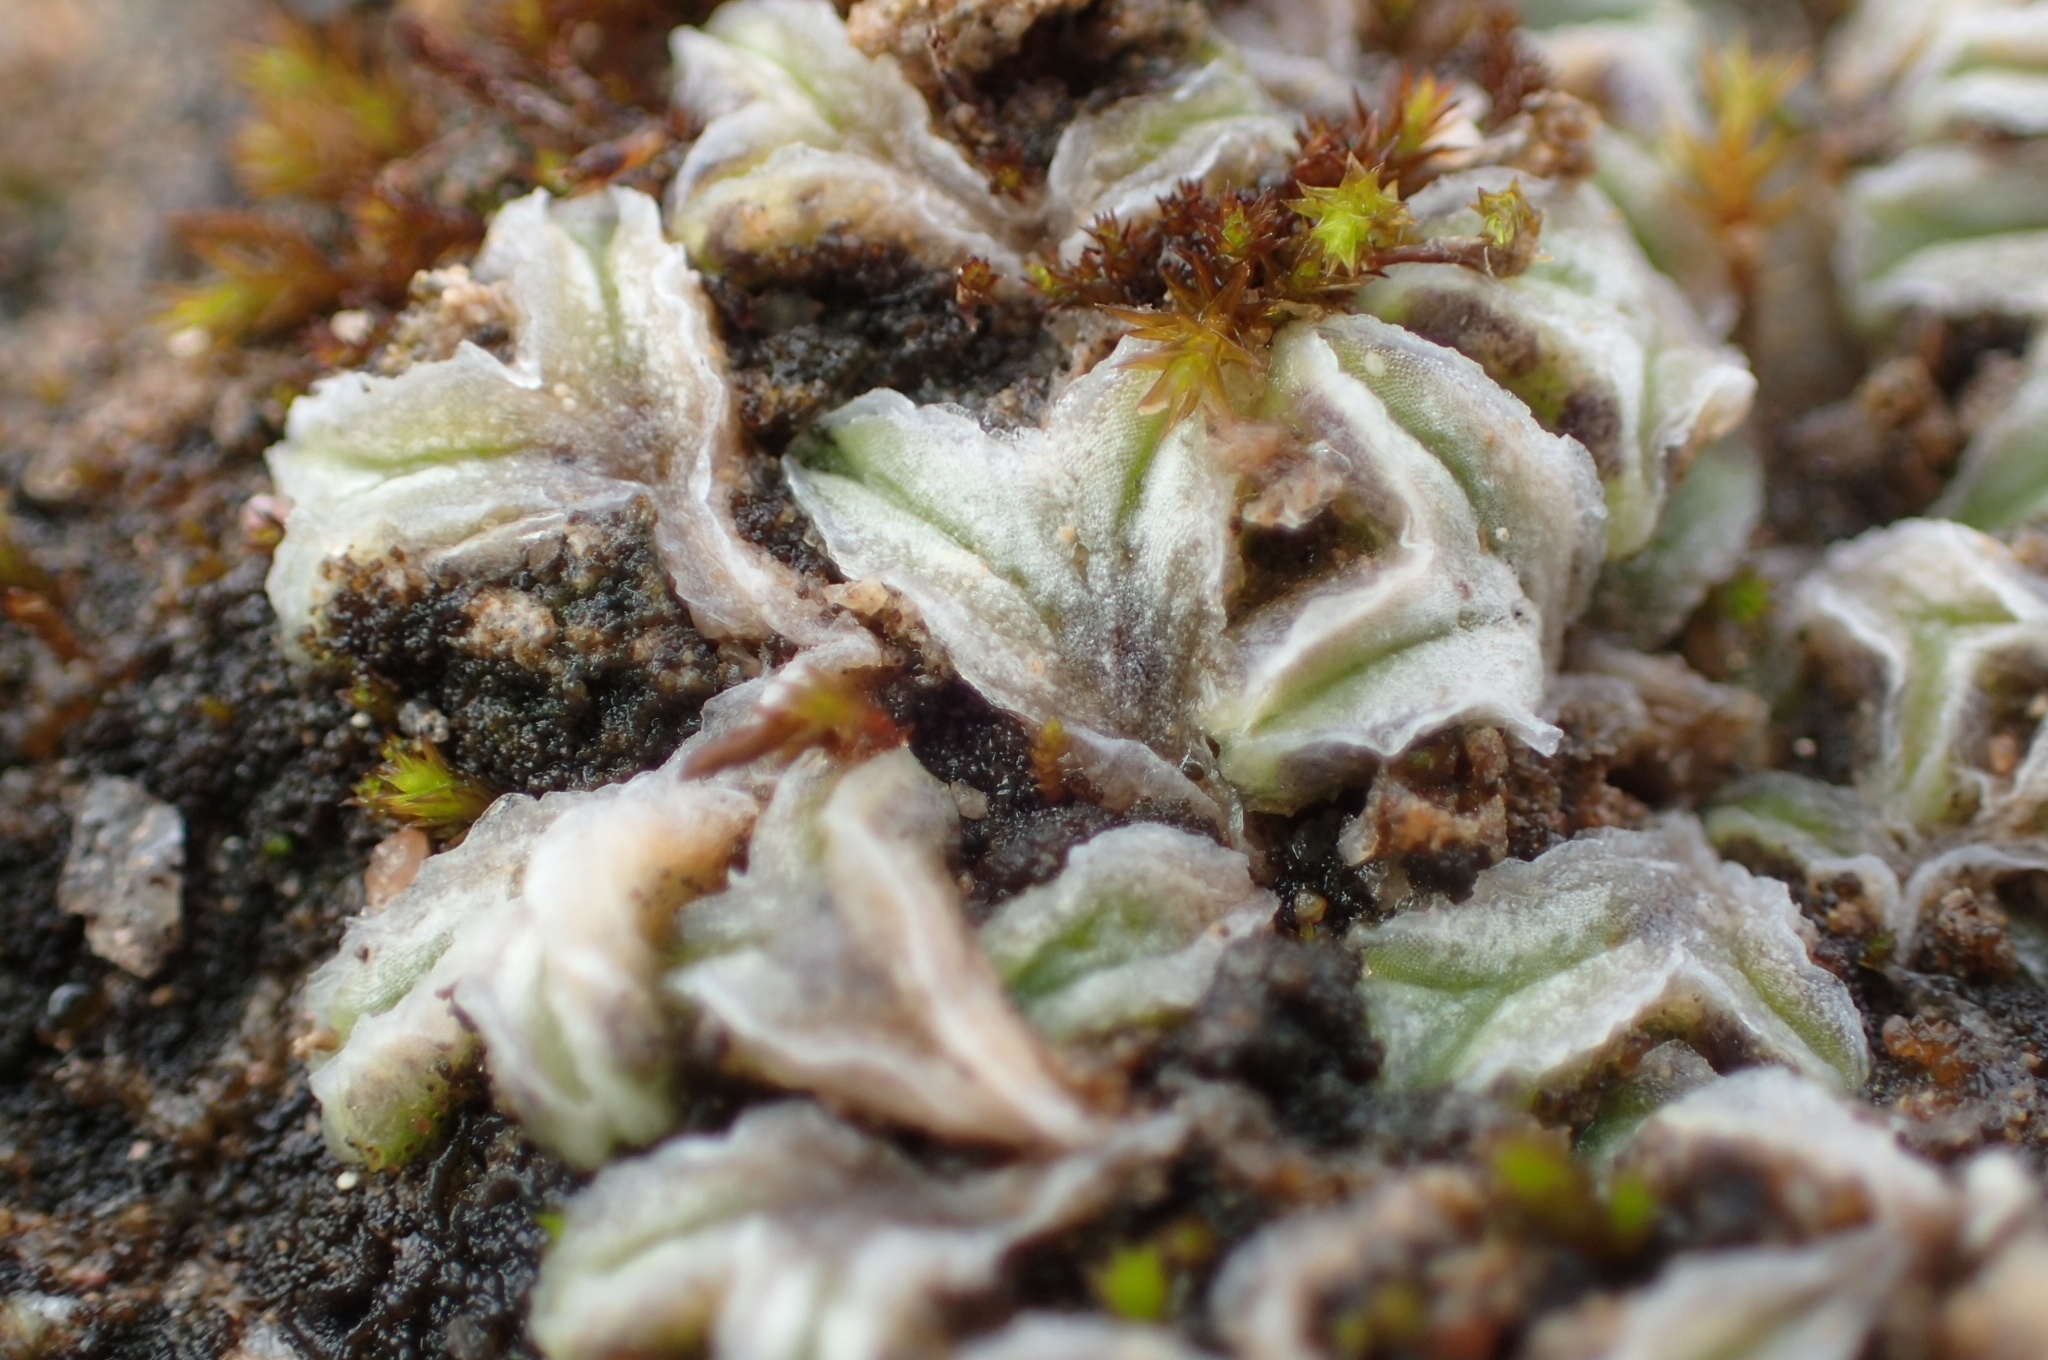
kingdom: Plantae
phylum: Marchantiophyta
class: Marchantiopsida
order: Marchantiales
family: Ricciaceae
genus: Riccia
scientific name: Riccia lamellosa
